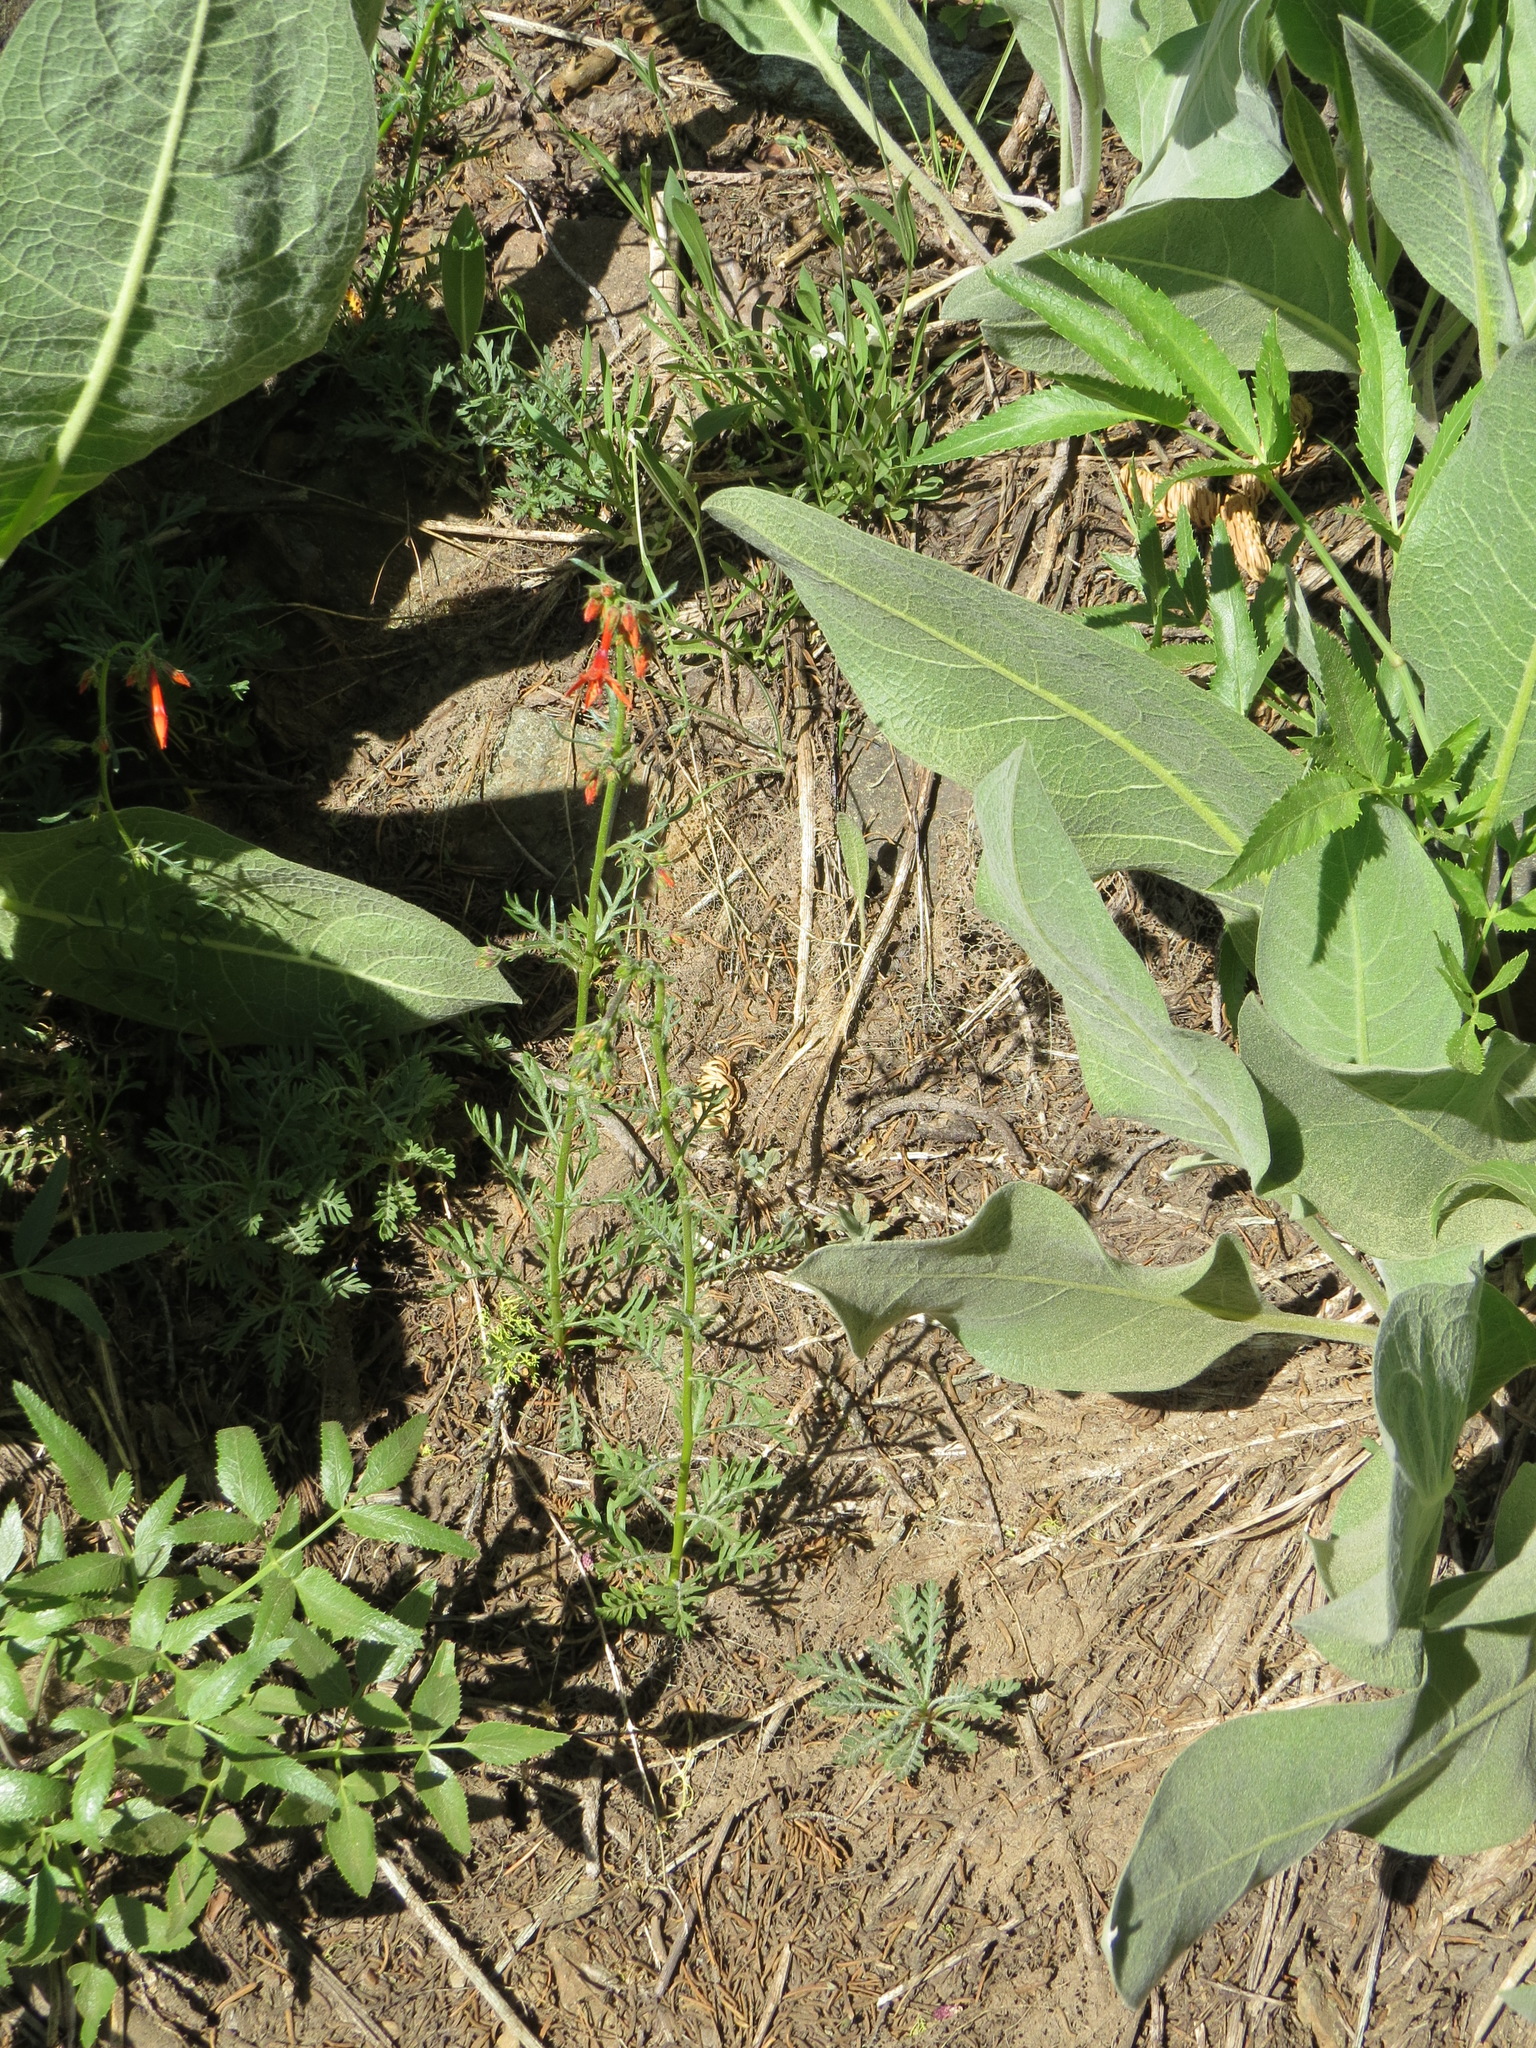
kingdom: Plantae
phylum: Tracheophyta
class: Magnoliopsida
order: Ericales
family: Polemoniaceae
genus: Ipomopsis
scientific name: Ipomopsis aggregata
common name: Scarlet gilia
